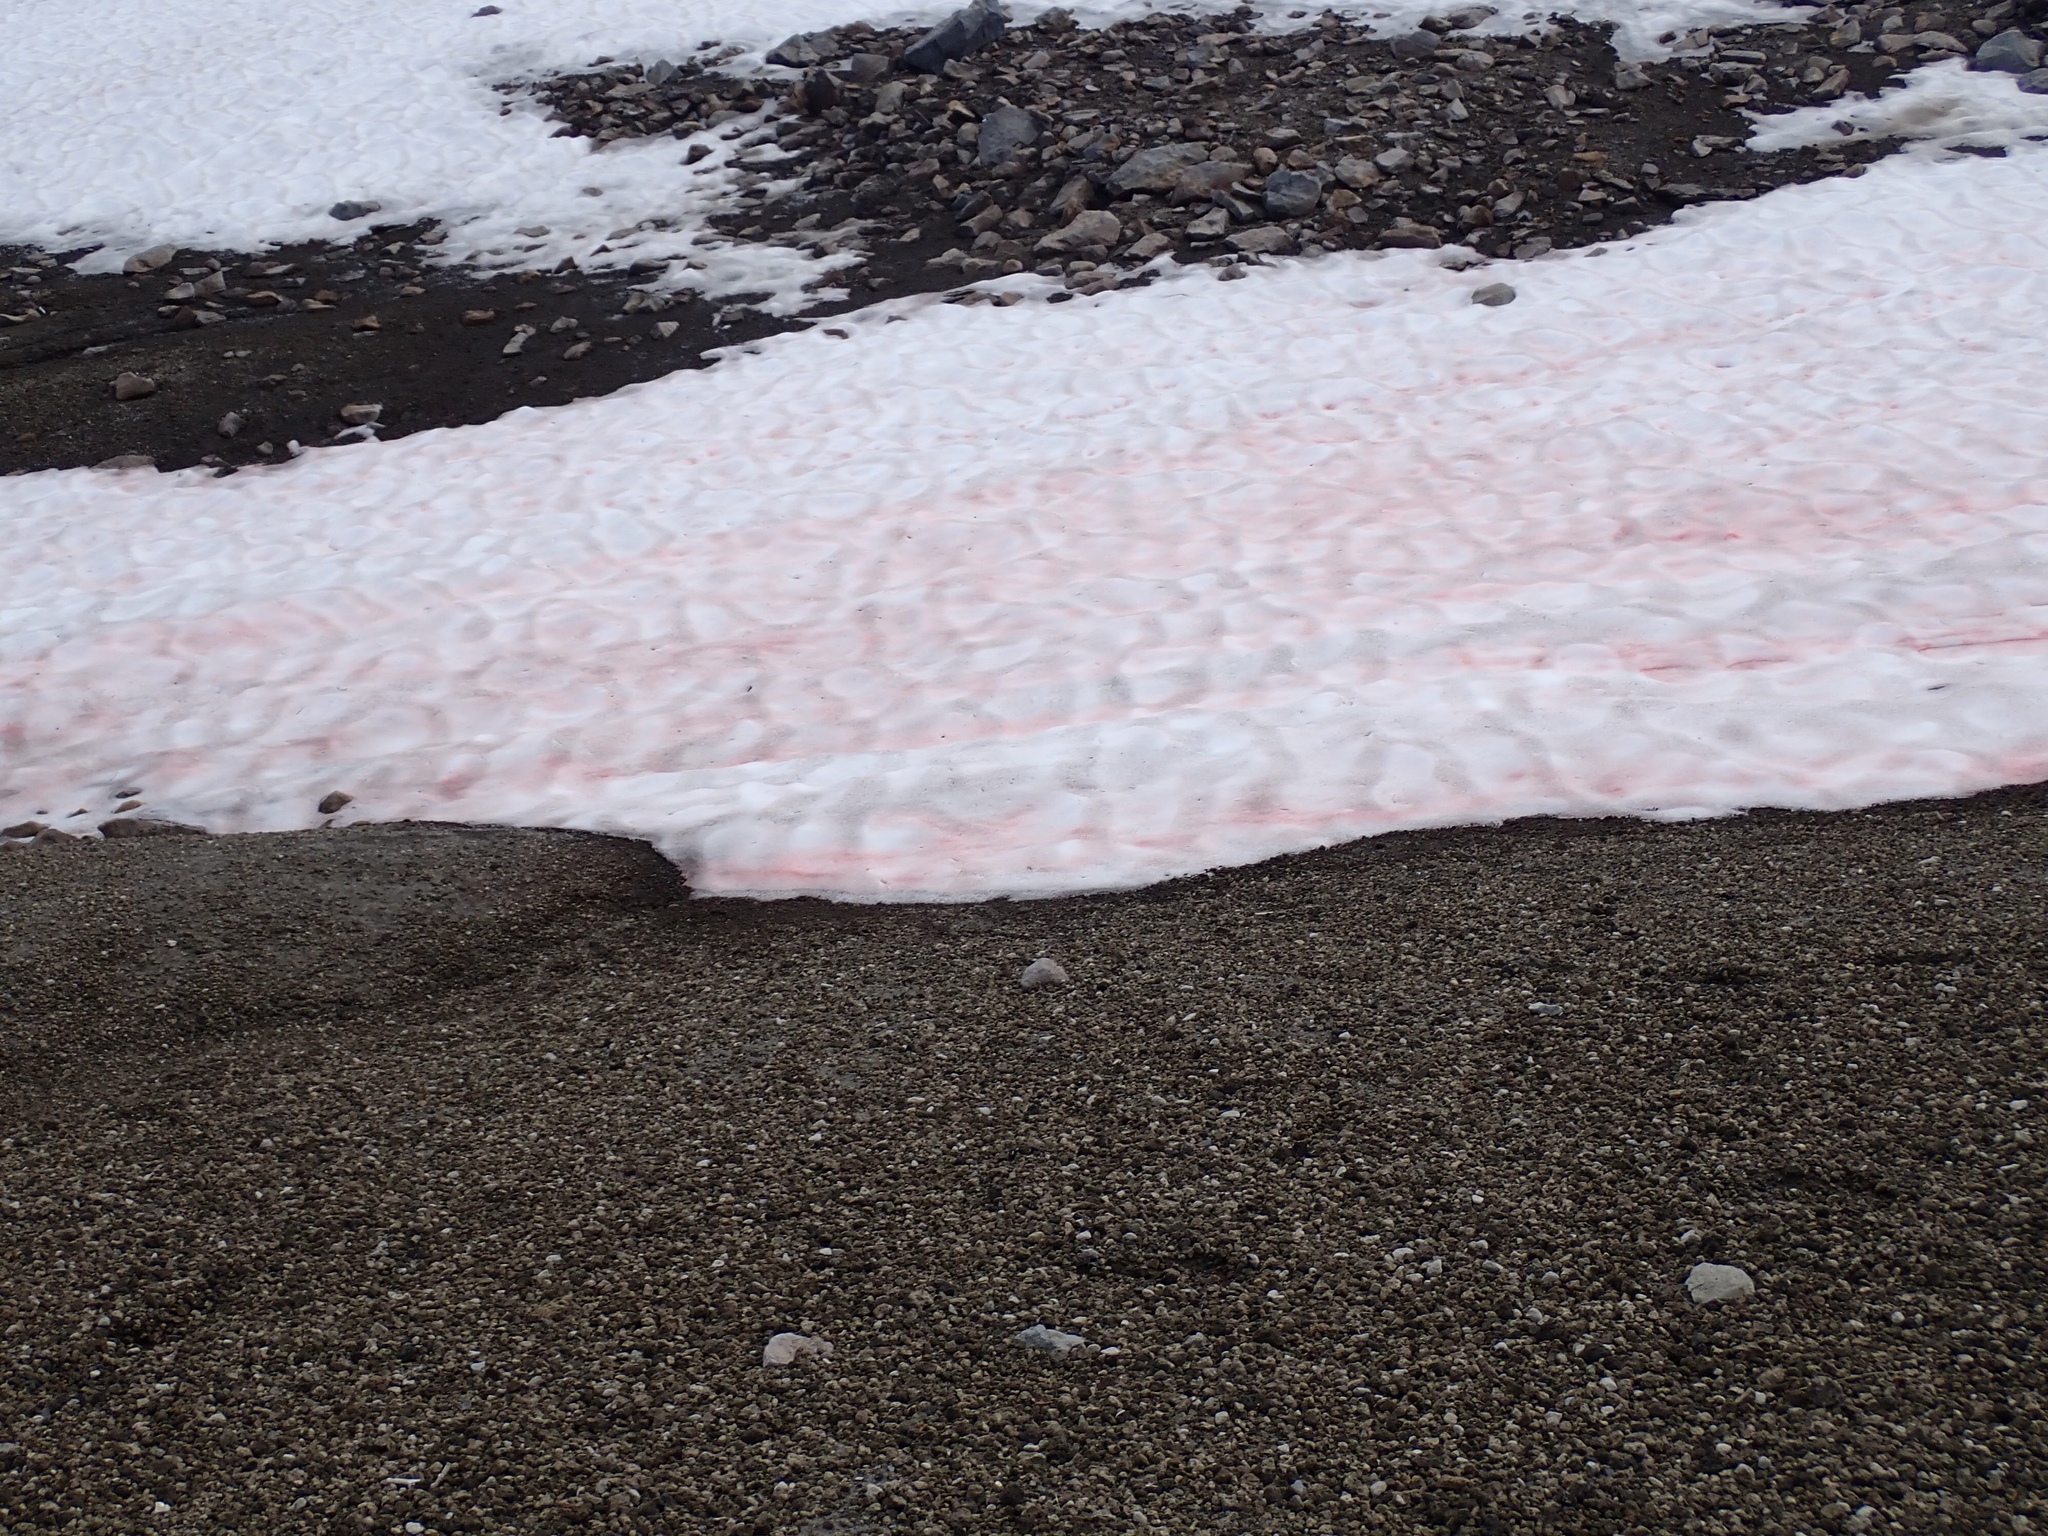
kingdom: Plantae
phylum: Chlorophyta
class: Chlorophyceae
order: Volvocales
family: Chlamydomonadaceae
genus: Chlamydomonas
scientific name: Chlamydomonas nivalis
